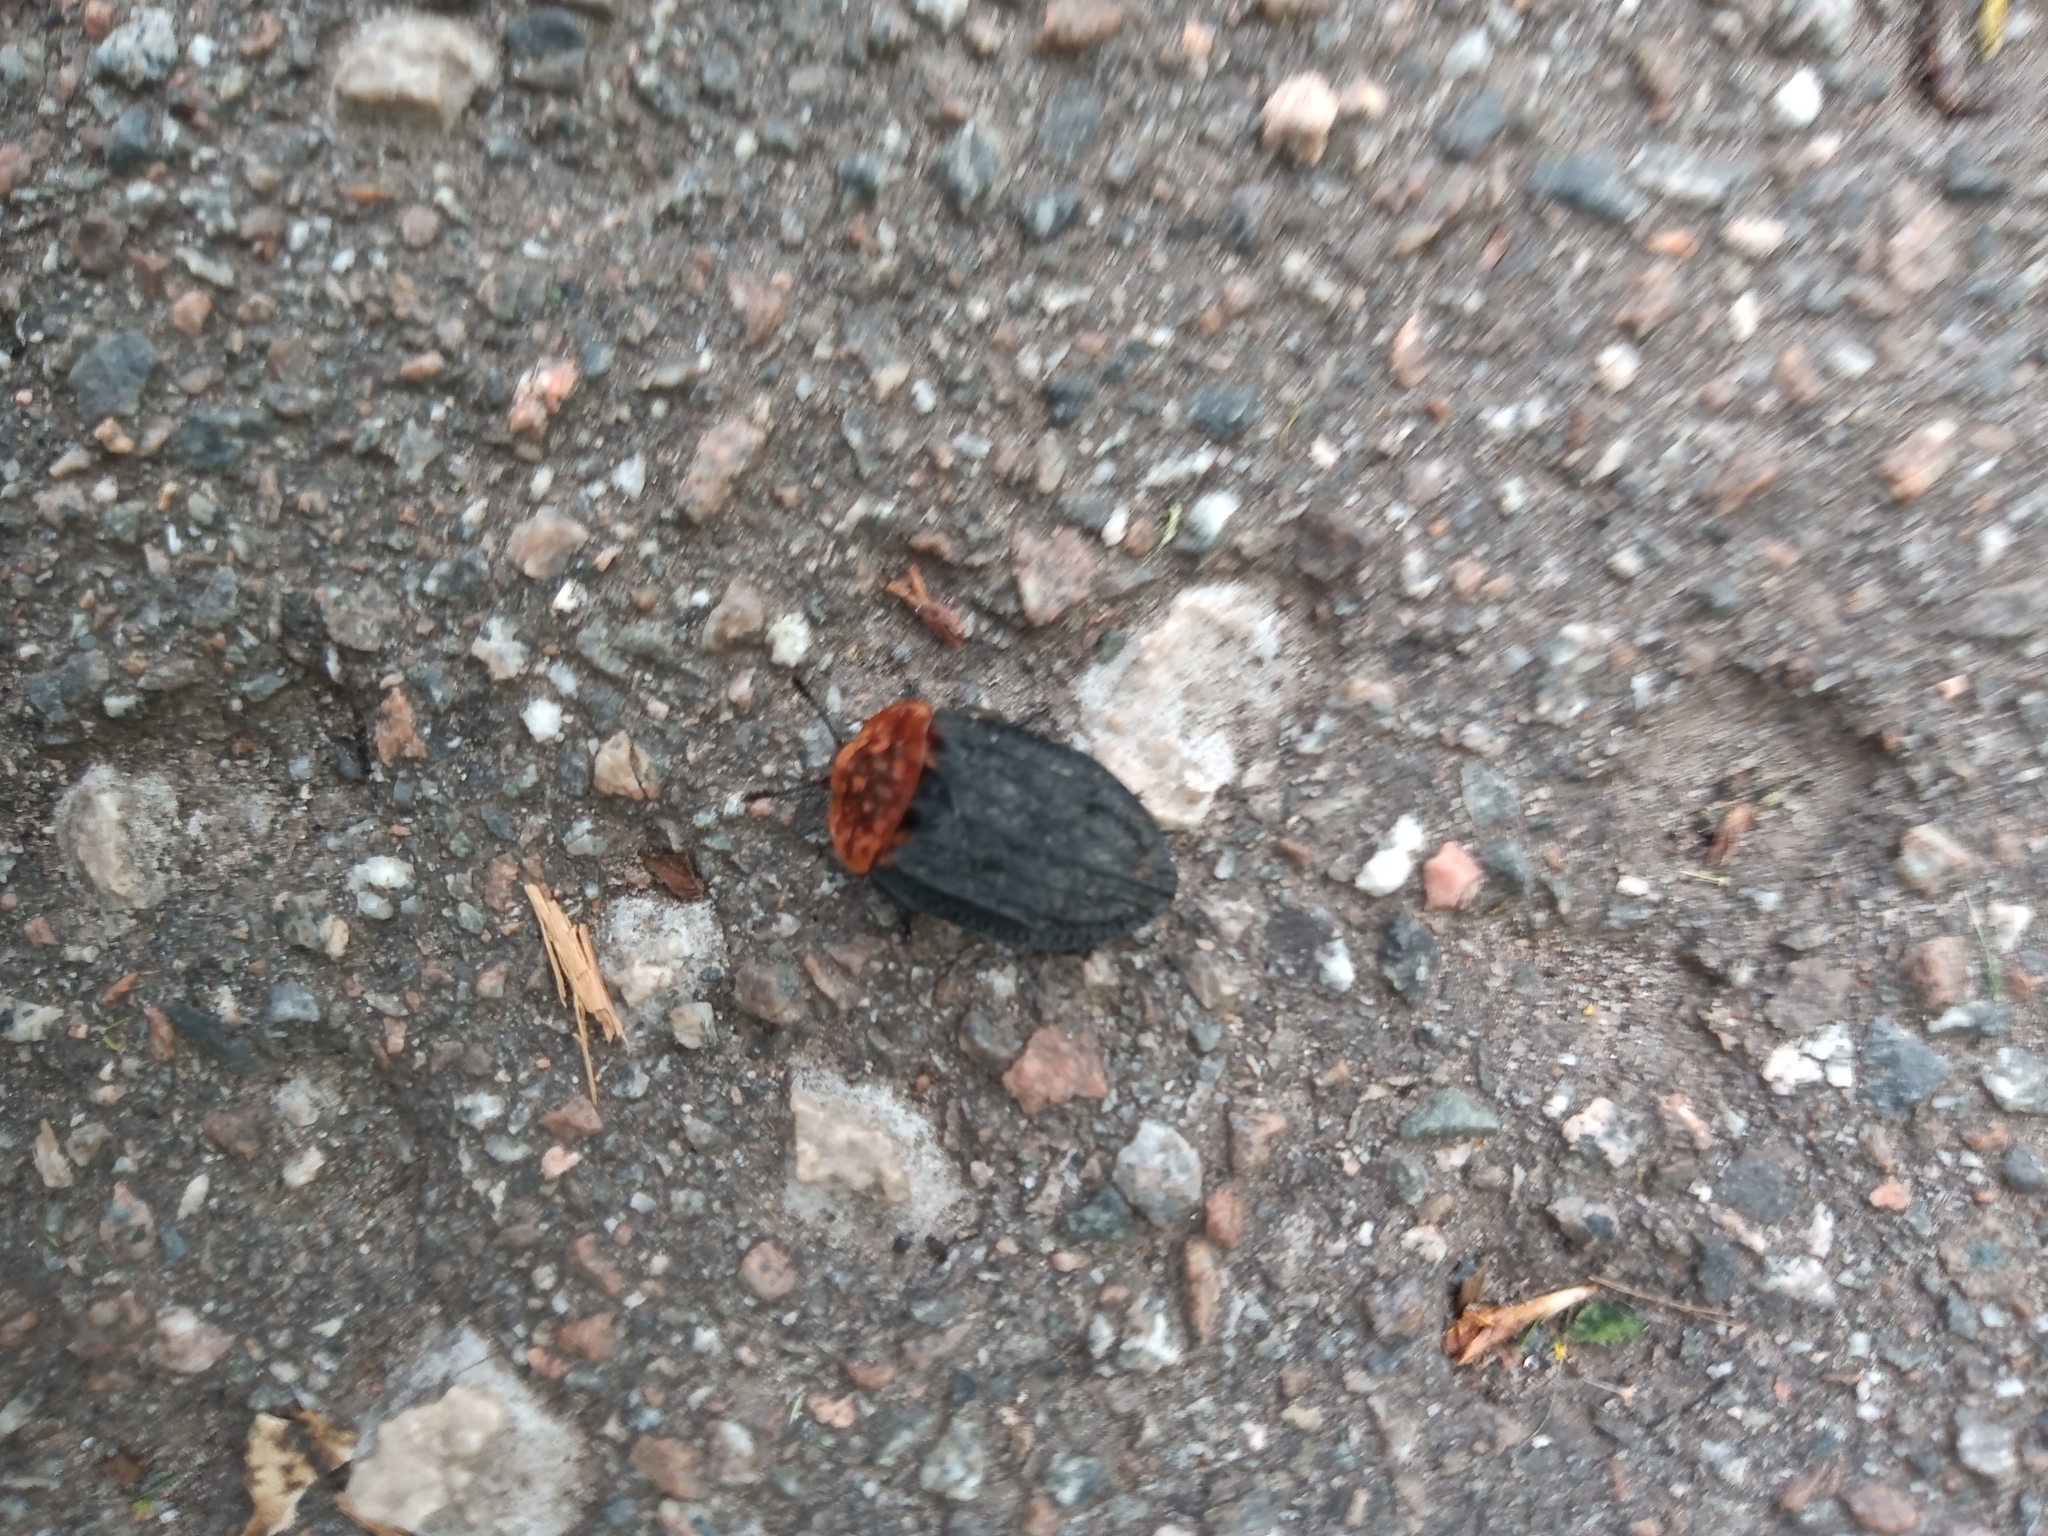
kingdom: Animalia
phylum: Arthropoda
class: Insecta
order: Coleoptera
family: Staphylinidae
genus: Oiceoptoma
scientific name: Oiceoptoma thoracicum
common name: Red-breasted carrion beetle
